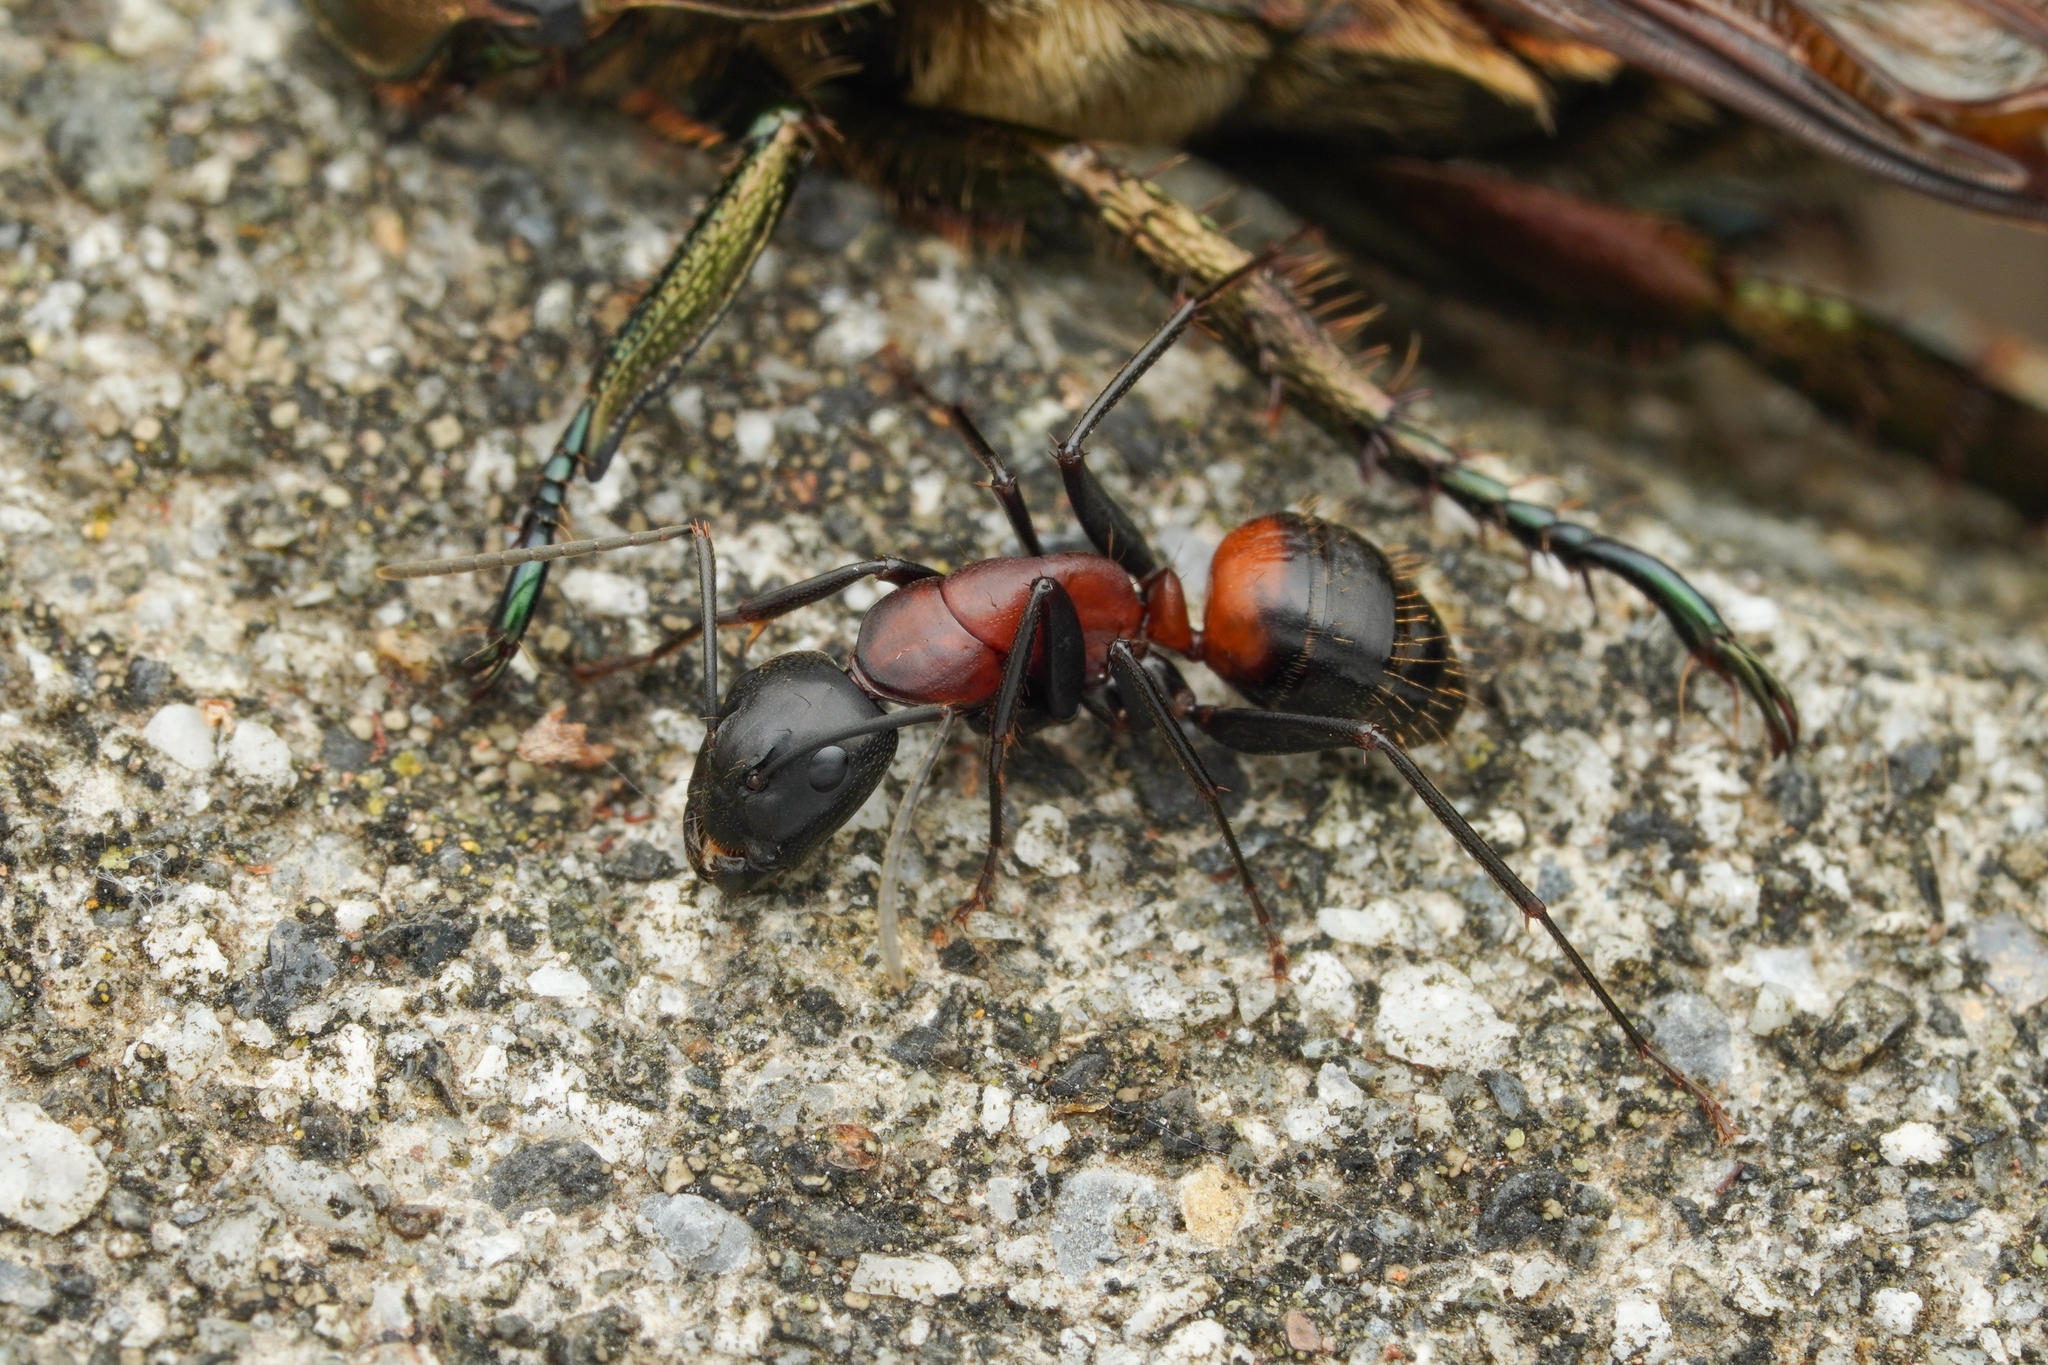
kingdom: Animalia
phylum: Arthropoda
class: Insecta
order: Hymenoptera
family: Formicidae
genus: Camponotus
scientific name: Camponotus obscuripes
